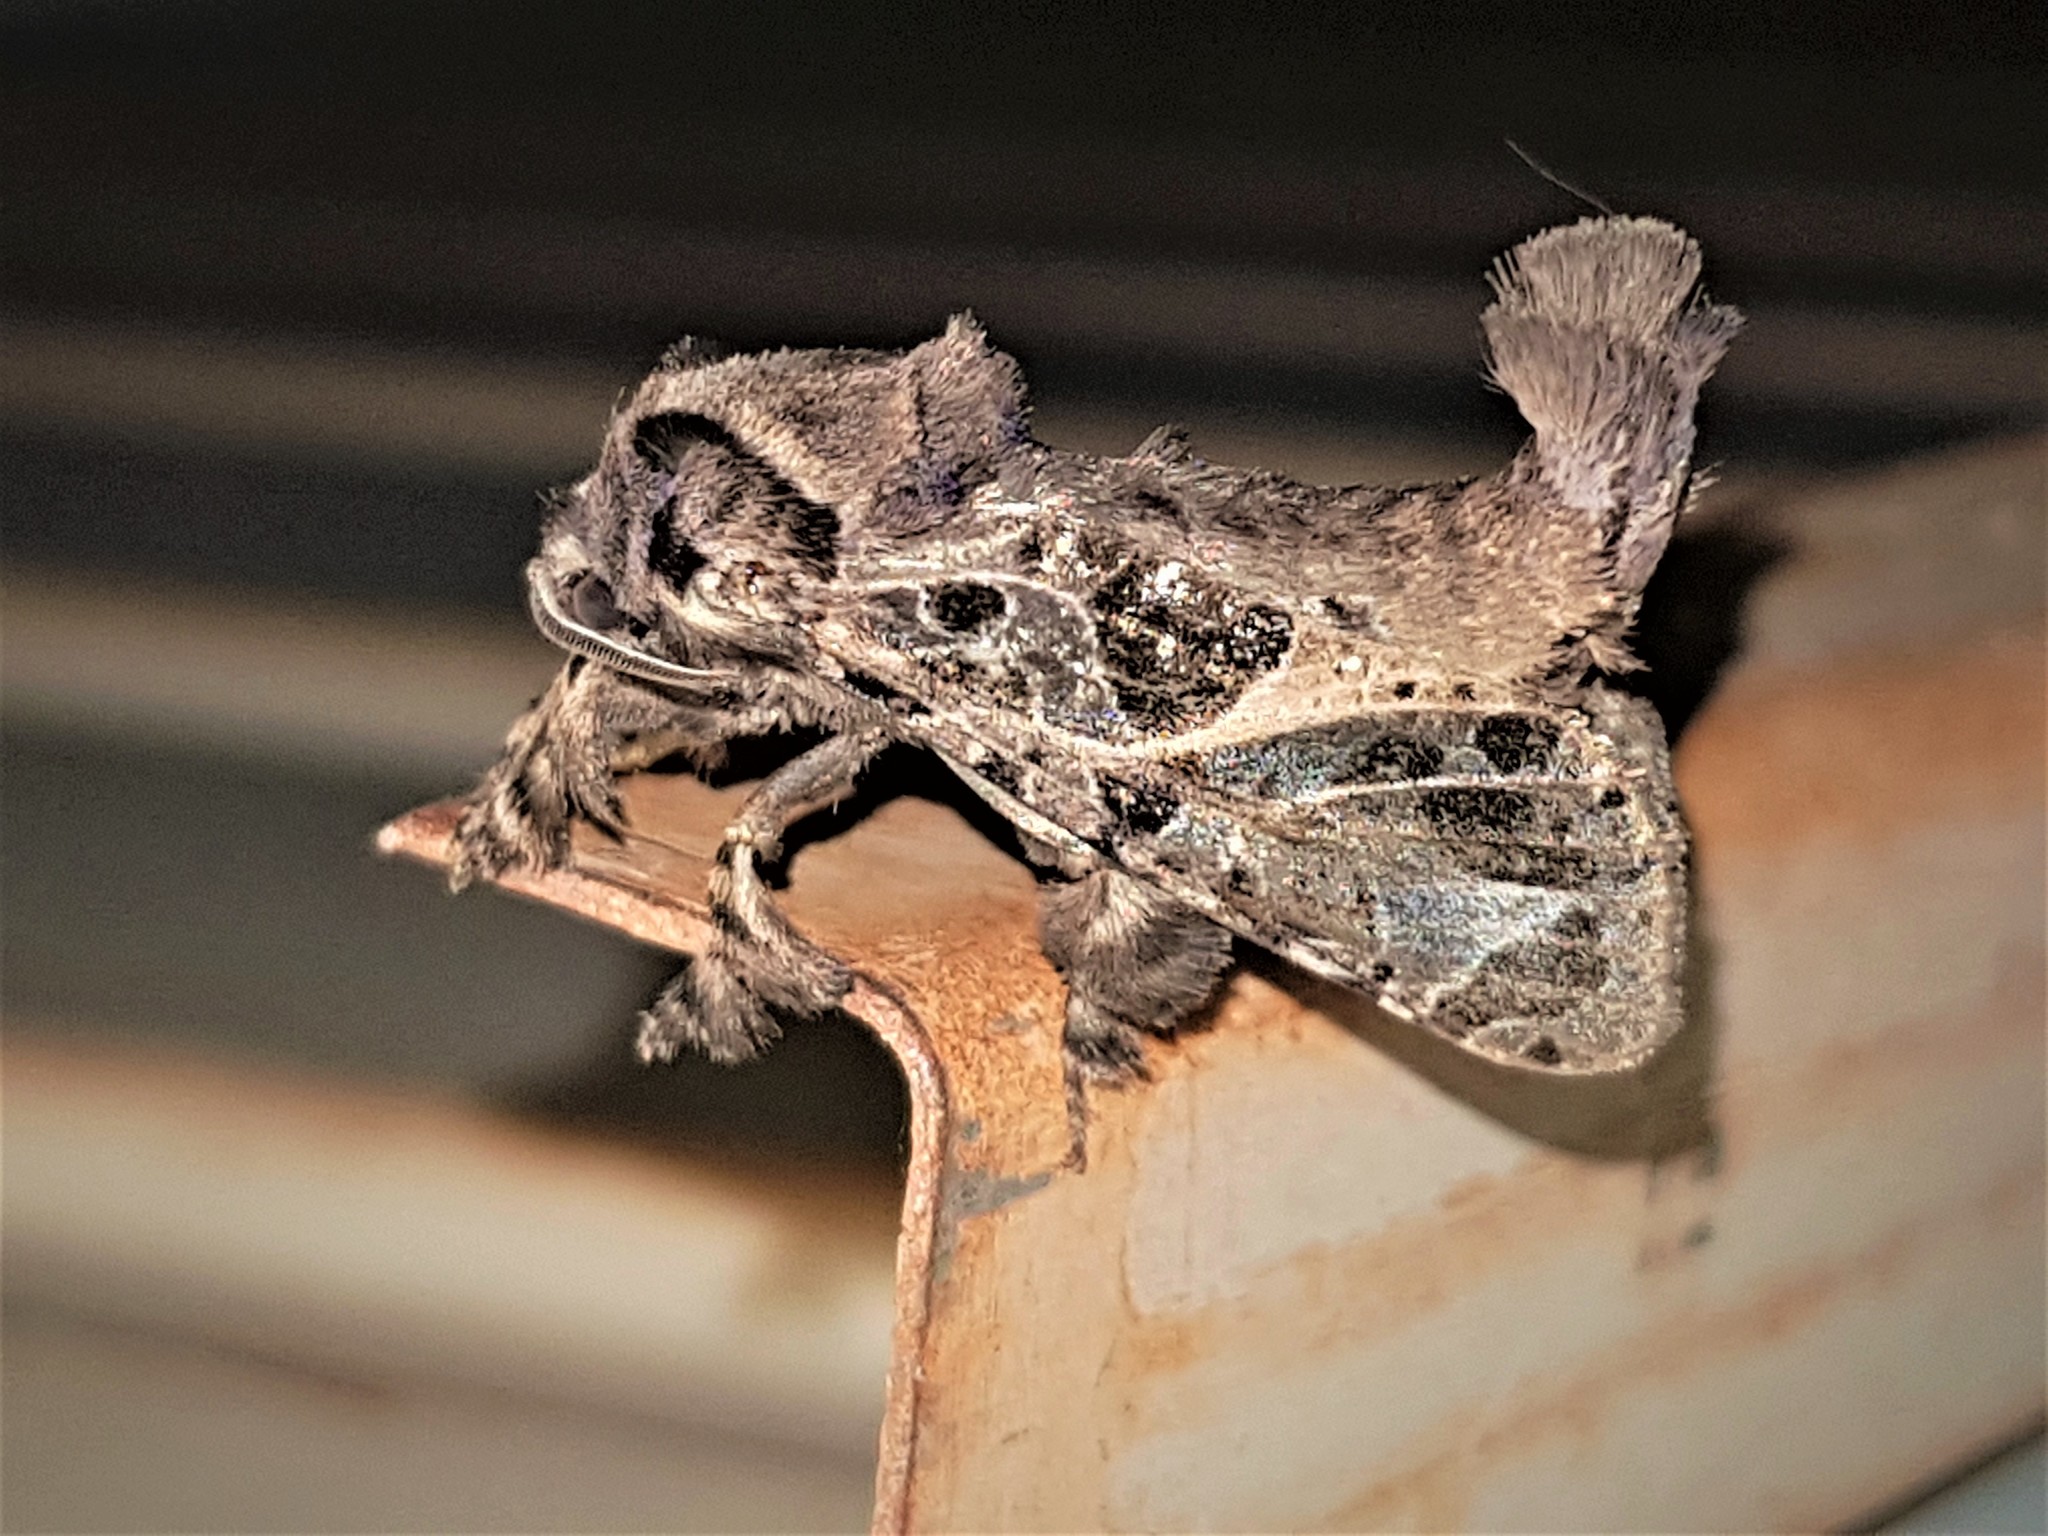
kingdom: Animalia
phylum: Arthropoda
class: Insecta
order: Lepidoptera
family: Cossidae
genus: Dolecta
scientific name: Dolecta
